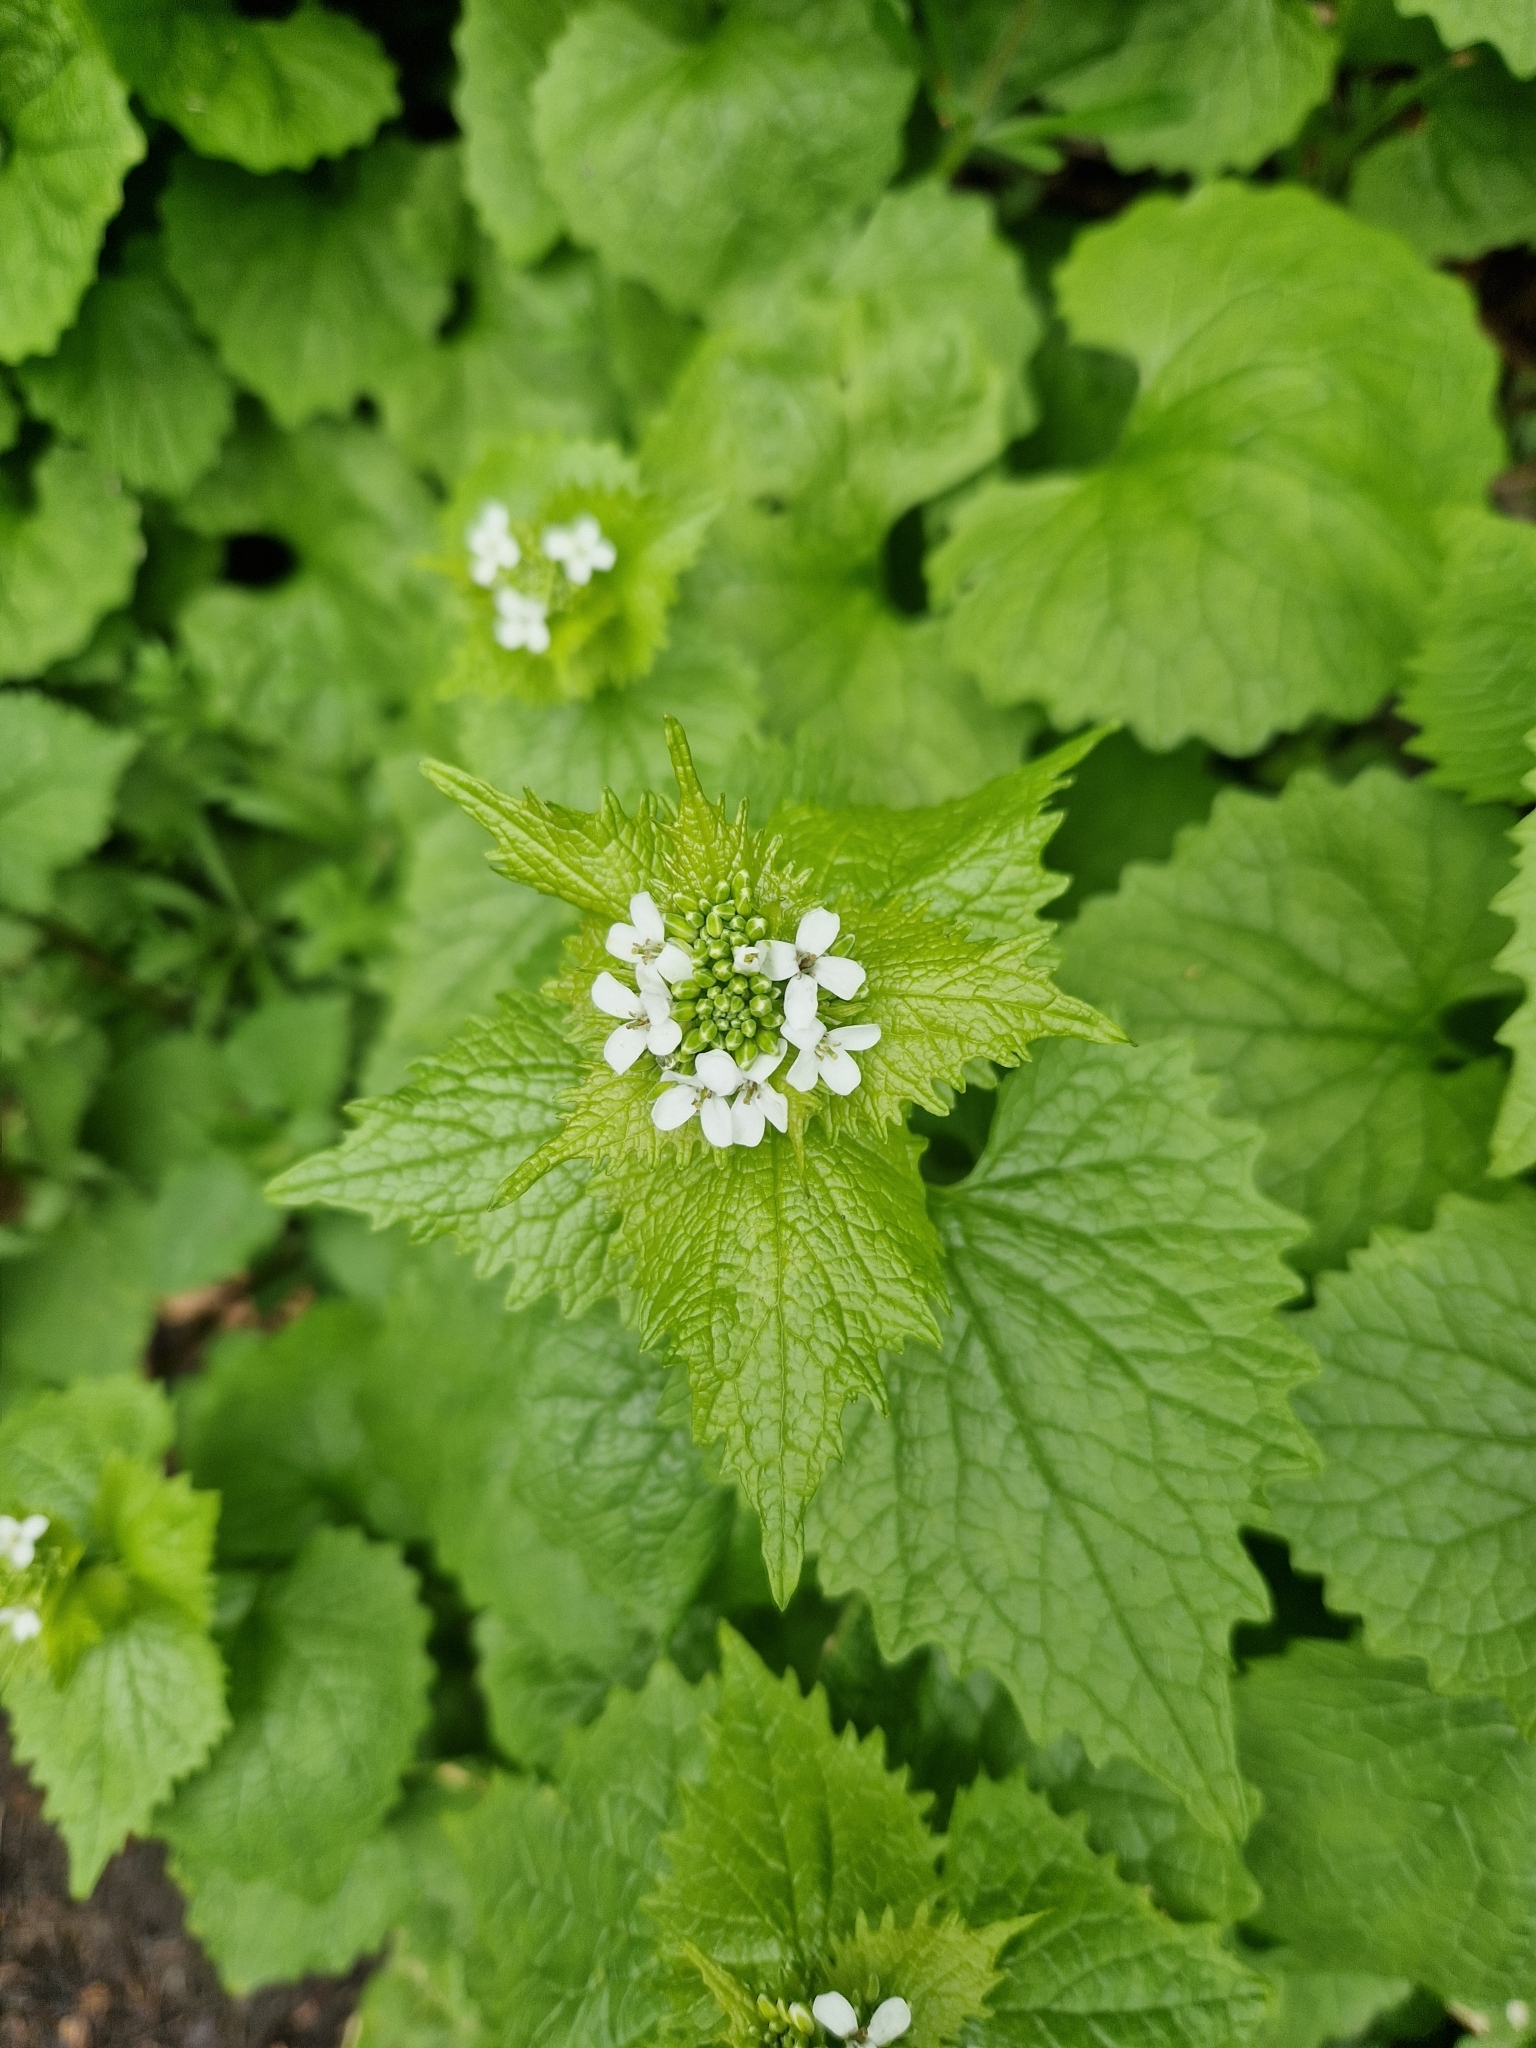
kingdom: Plantae
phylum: Tracheophyta
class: Magnoliopsida
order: Brassicales
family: Brassicaceae
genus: Alliaria
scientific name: Alliaria petiolata
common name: Garlic mustard
